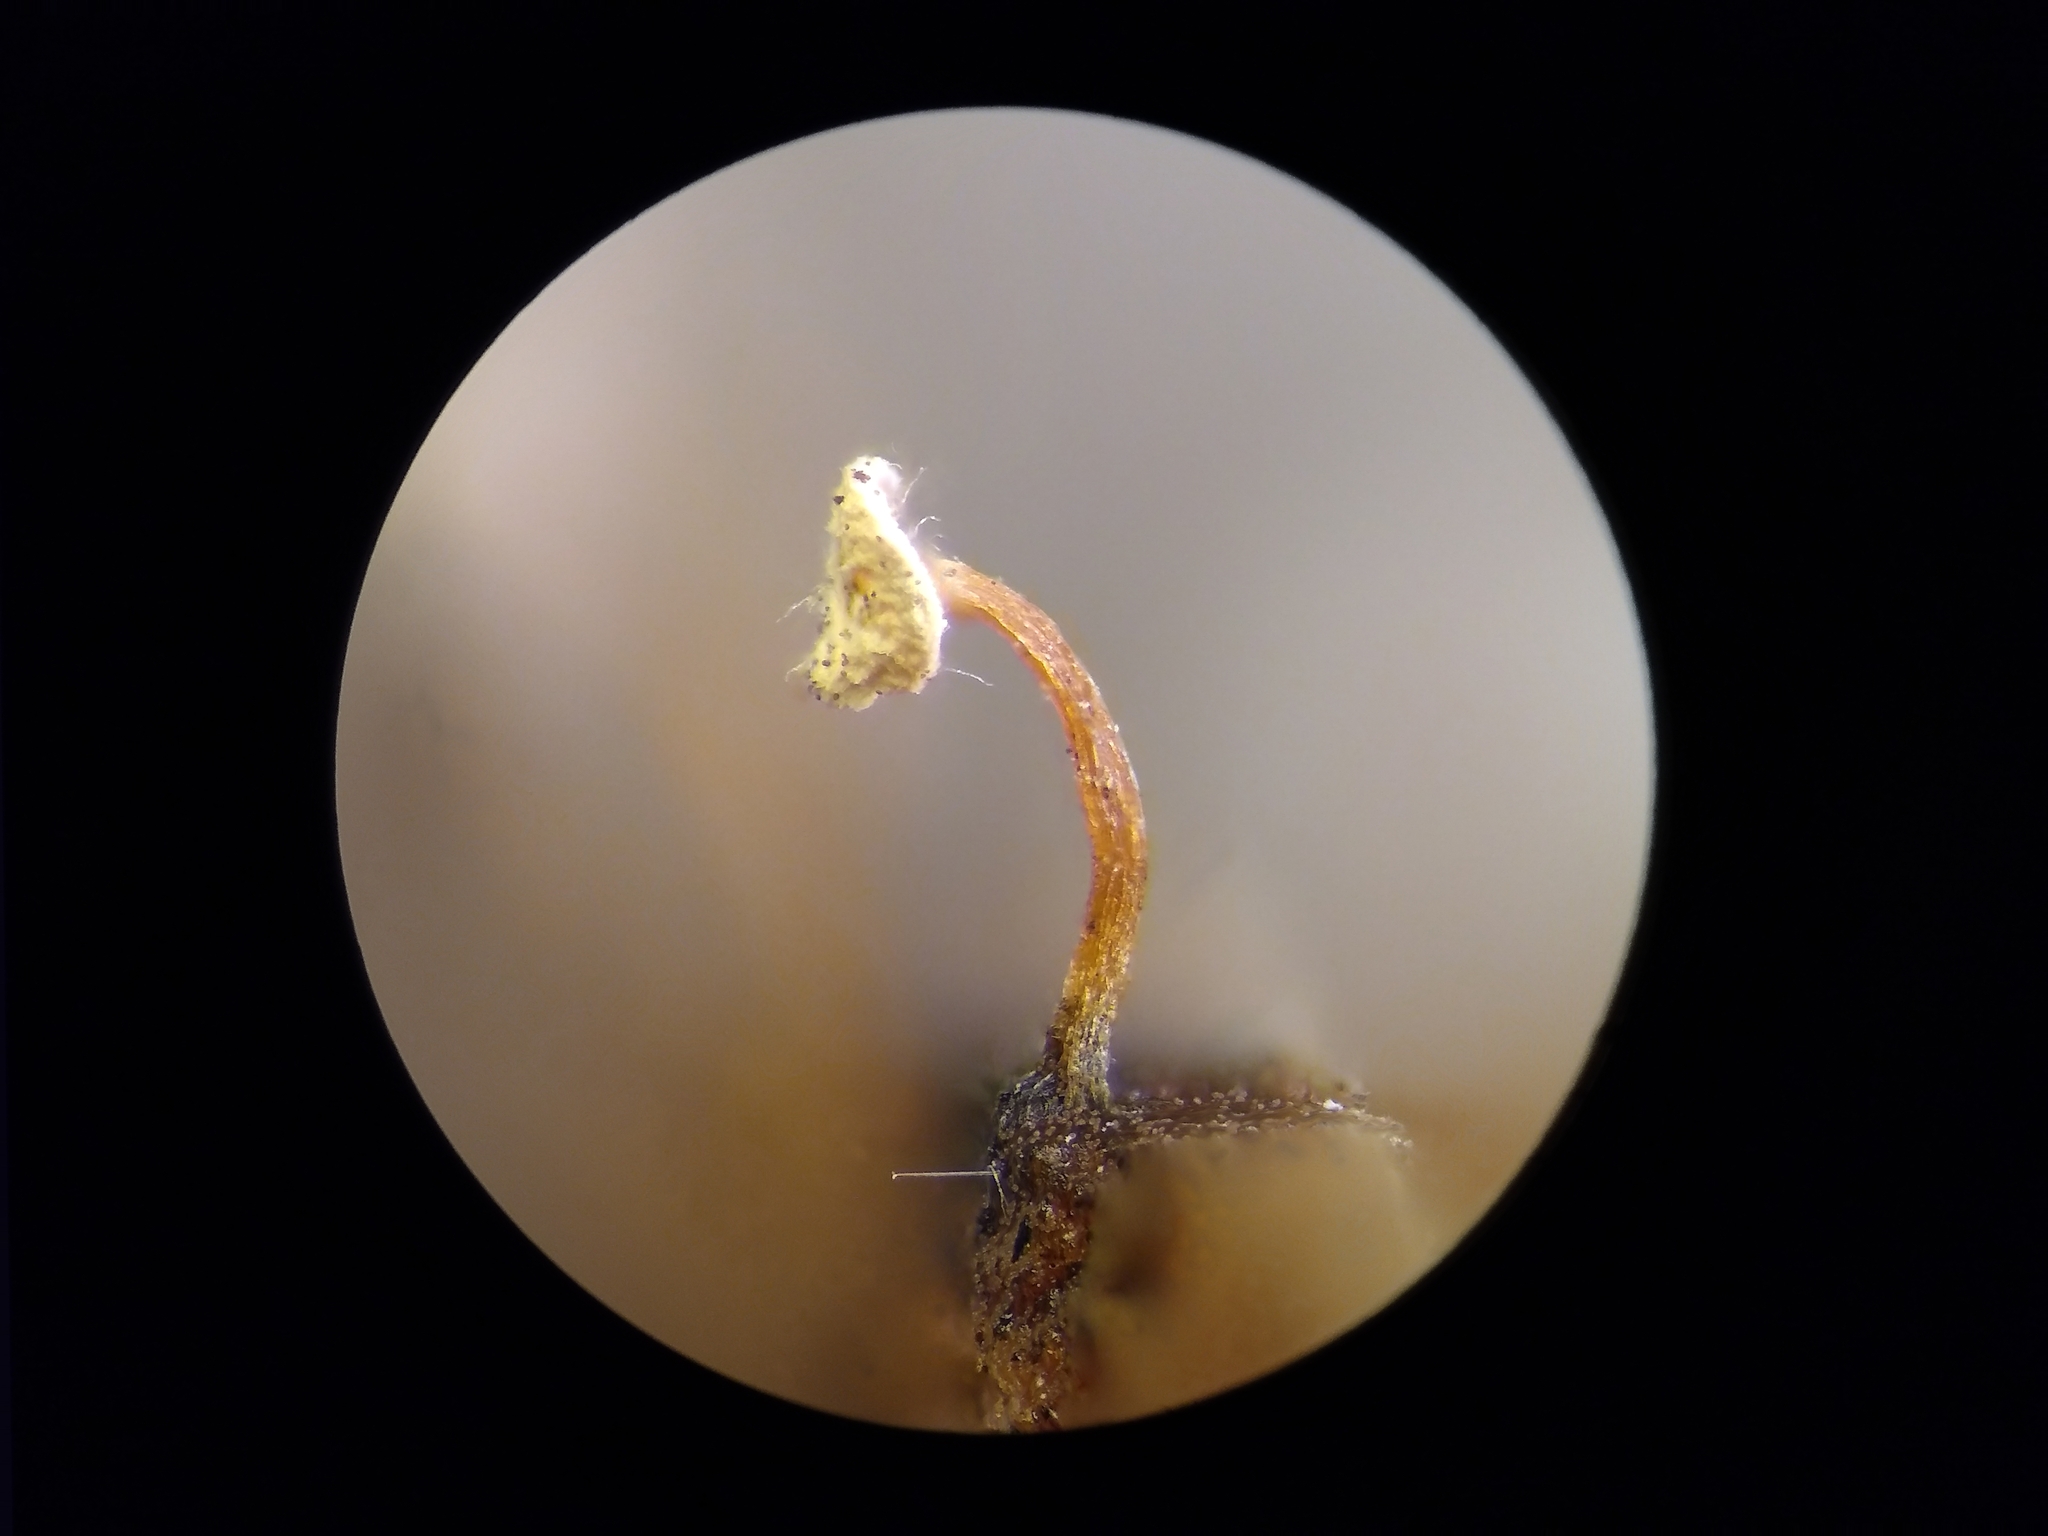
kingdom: Protozoa
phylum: Mycetozoa
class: Myxomycetes
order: Physarales
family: Didymiaceae
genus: Didymium
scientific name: Didymium bahiense
